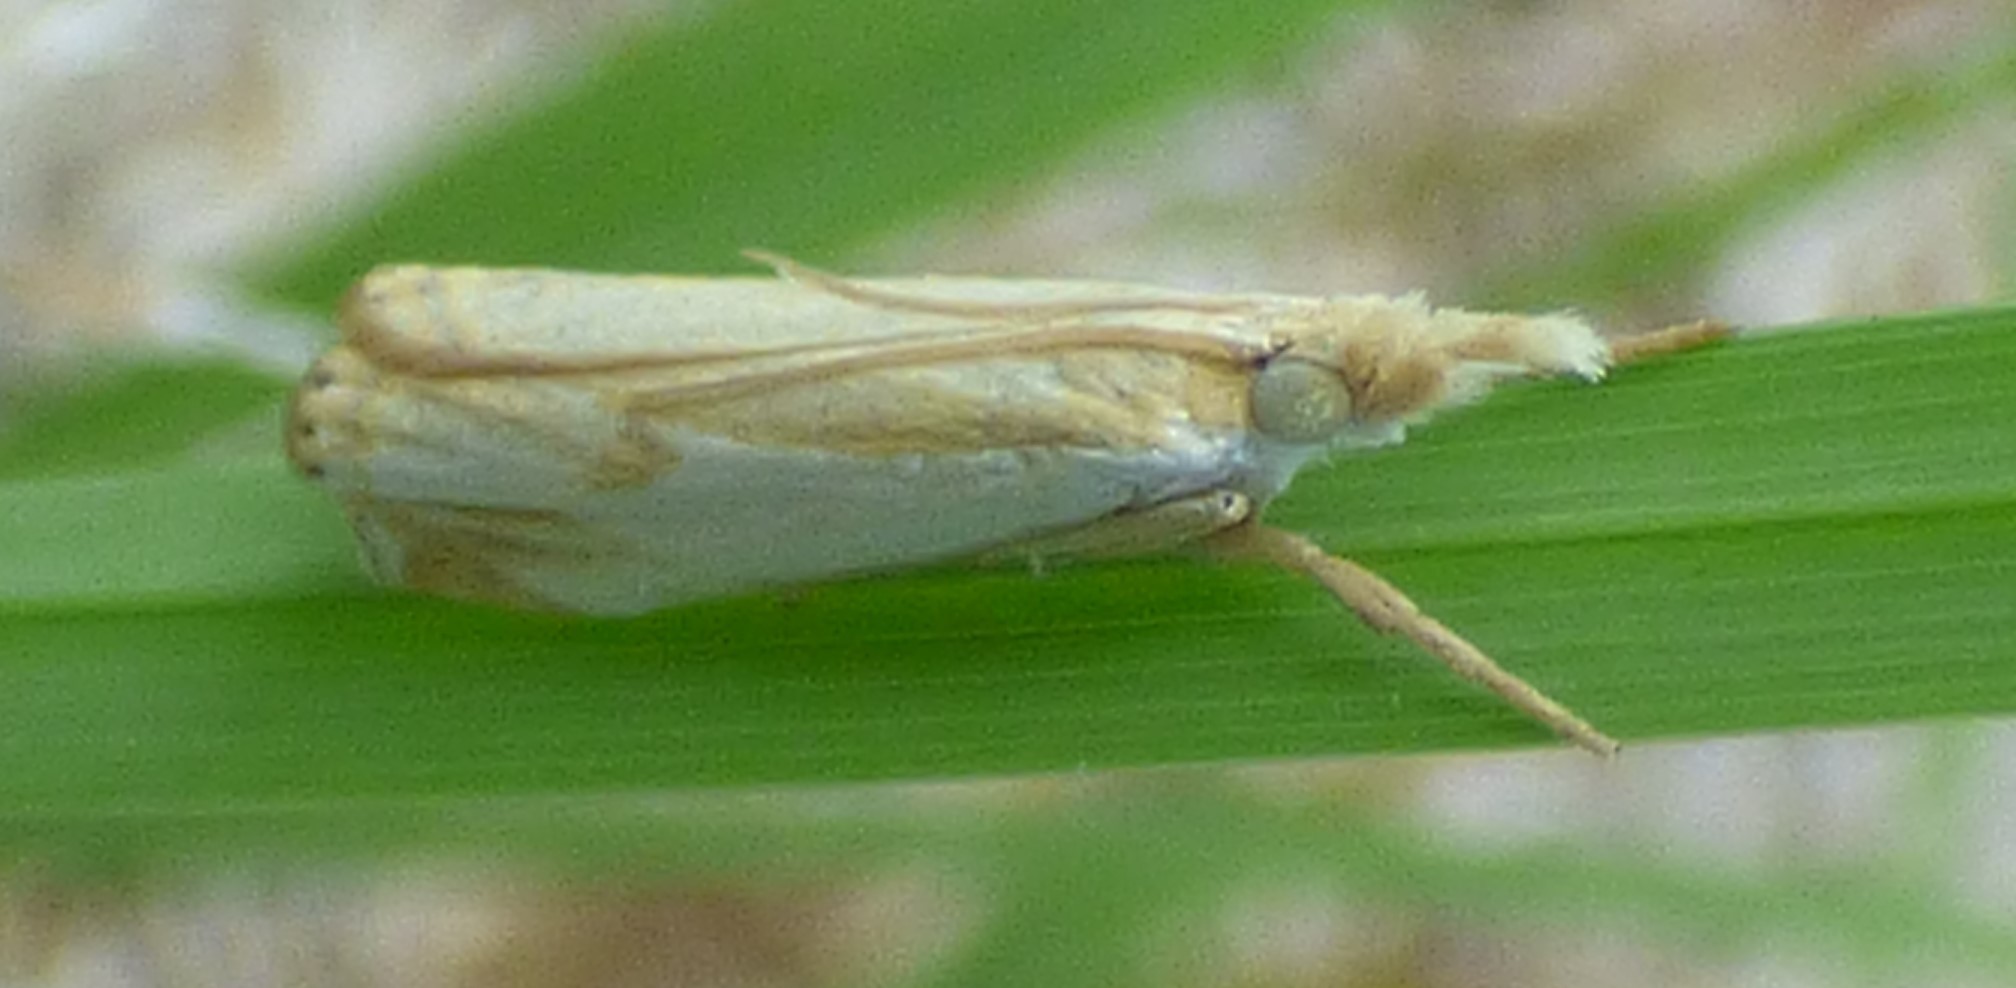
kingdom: Animalia
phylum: Arthropoda
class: Insecta
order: Lepidoptera
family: Crambidae
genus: Crambus
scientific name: Crambus agitatellus
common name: Double-banded grass-veneer
